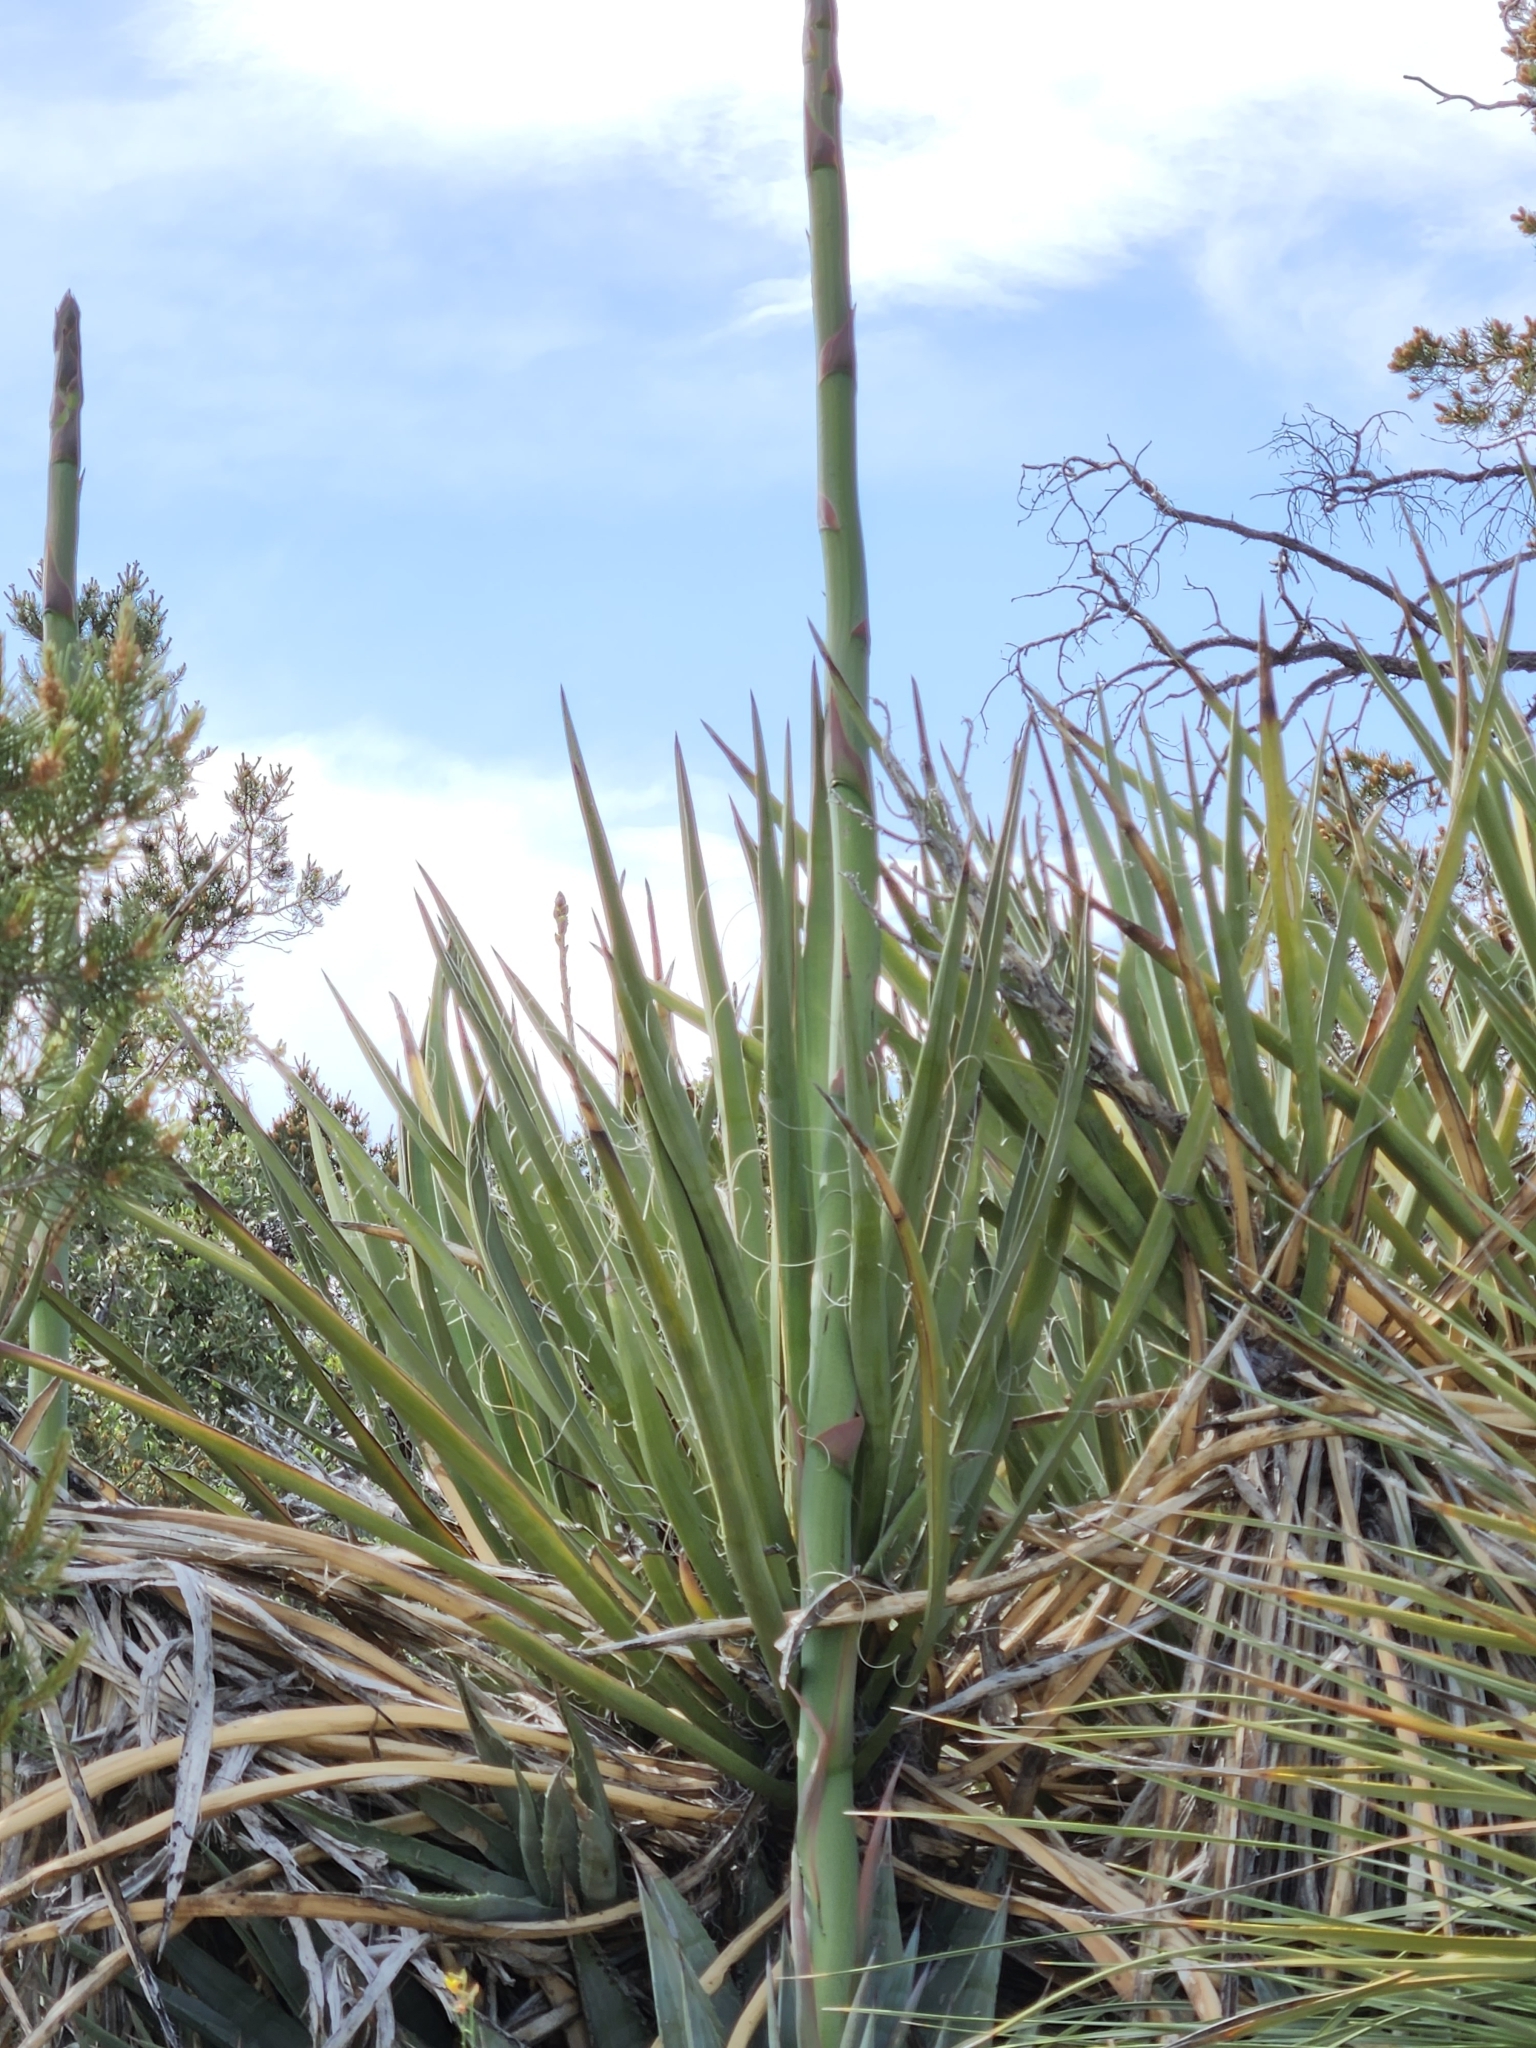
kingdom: Plantae
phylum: Tracheophyta
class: Liliopsida
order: Asparagales
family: Asparagaceae
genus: Yucca
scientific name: Yucca schidigera
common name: Mojave yucca
